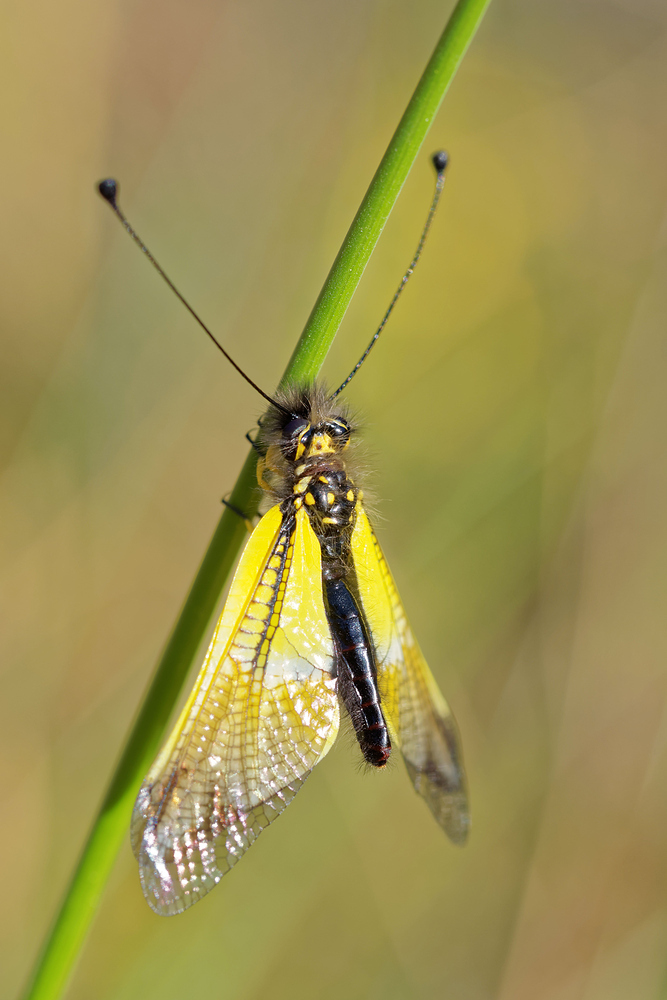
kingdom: Animalia
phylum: Arthropoda
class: Insecta
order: Neuroptera
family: Ascalaphidae
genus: Libelloides
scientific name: Libelloides baeticus
